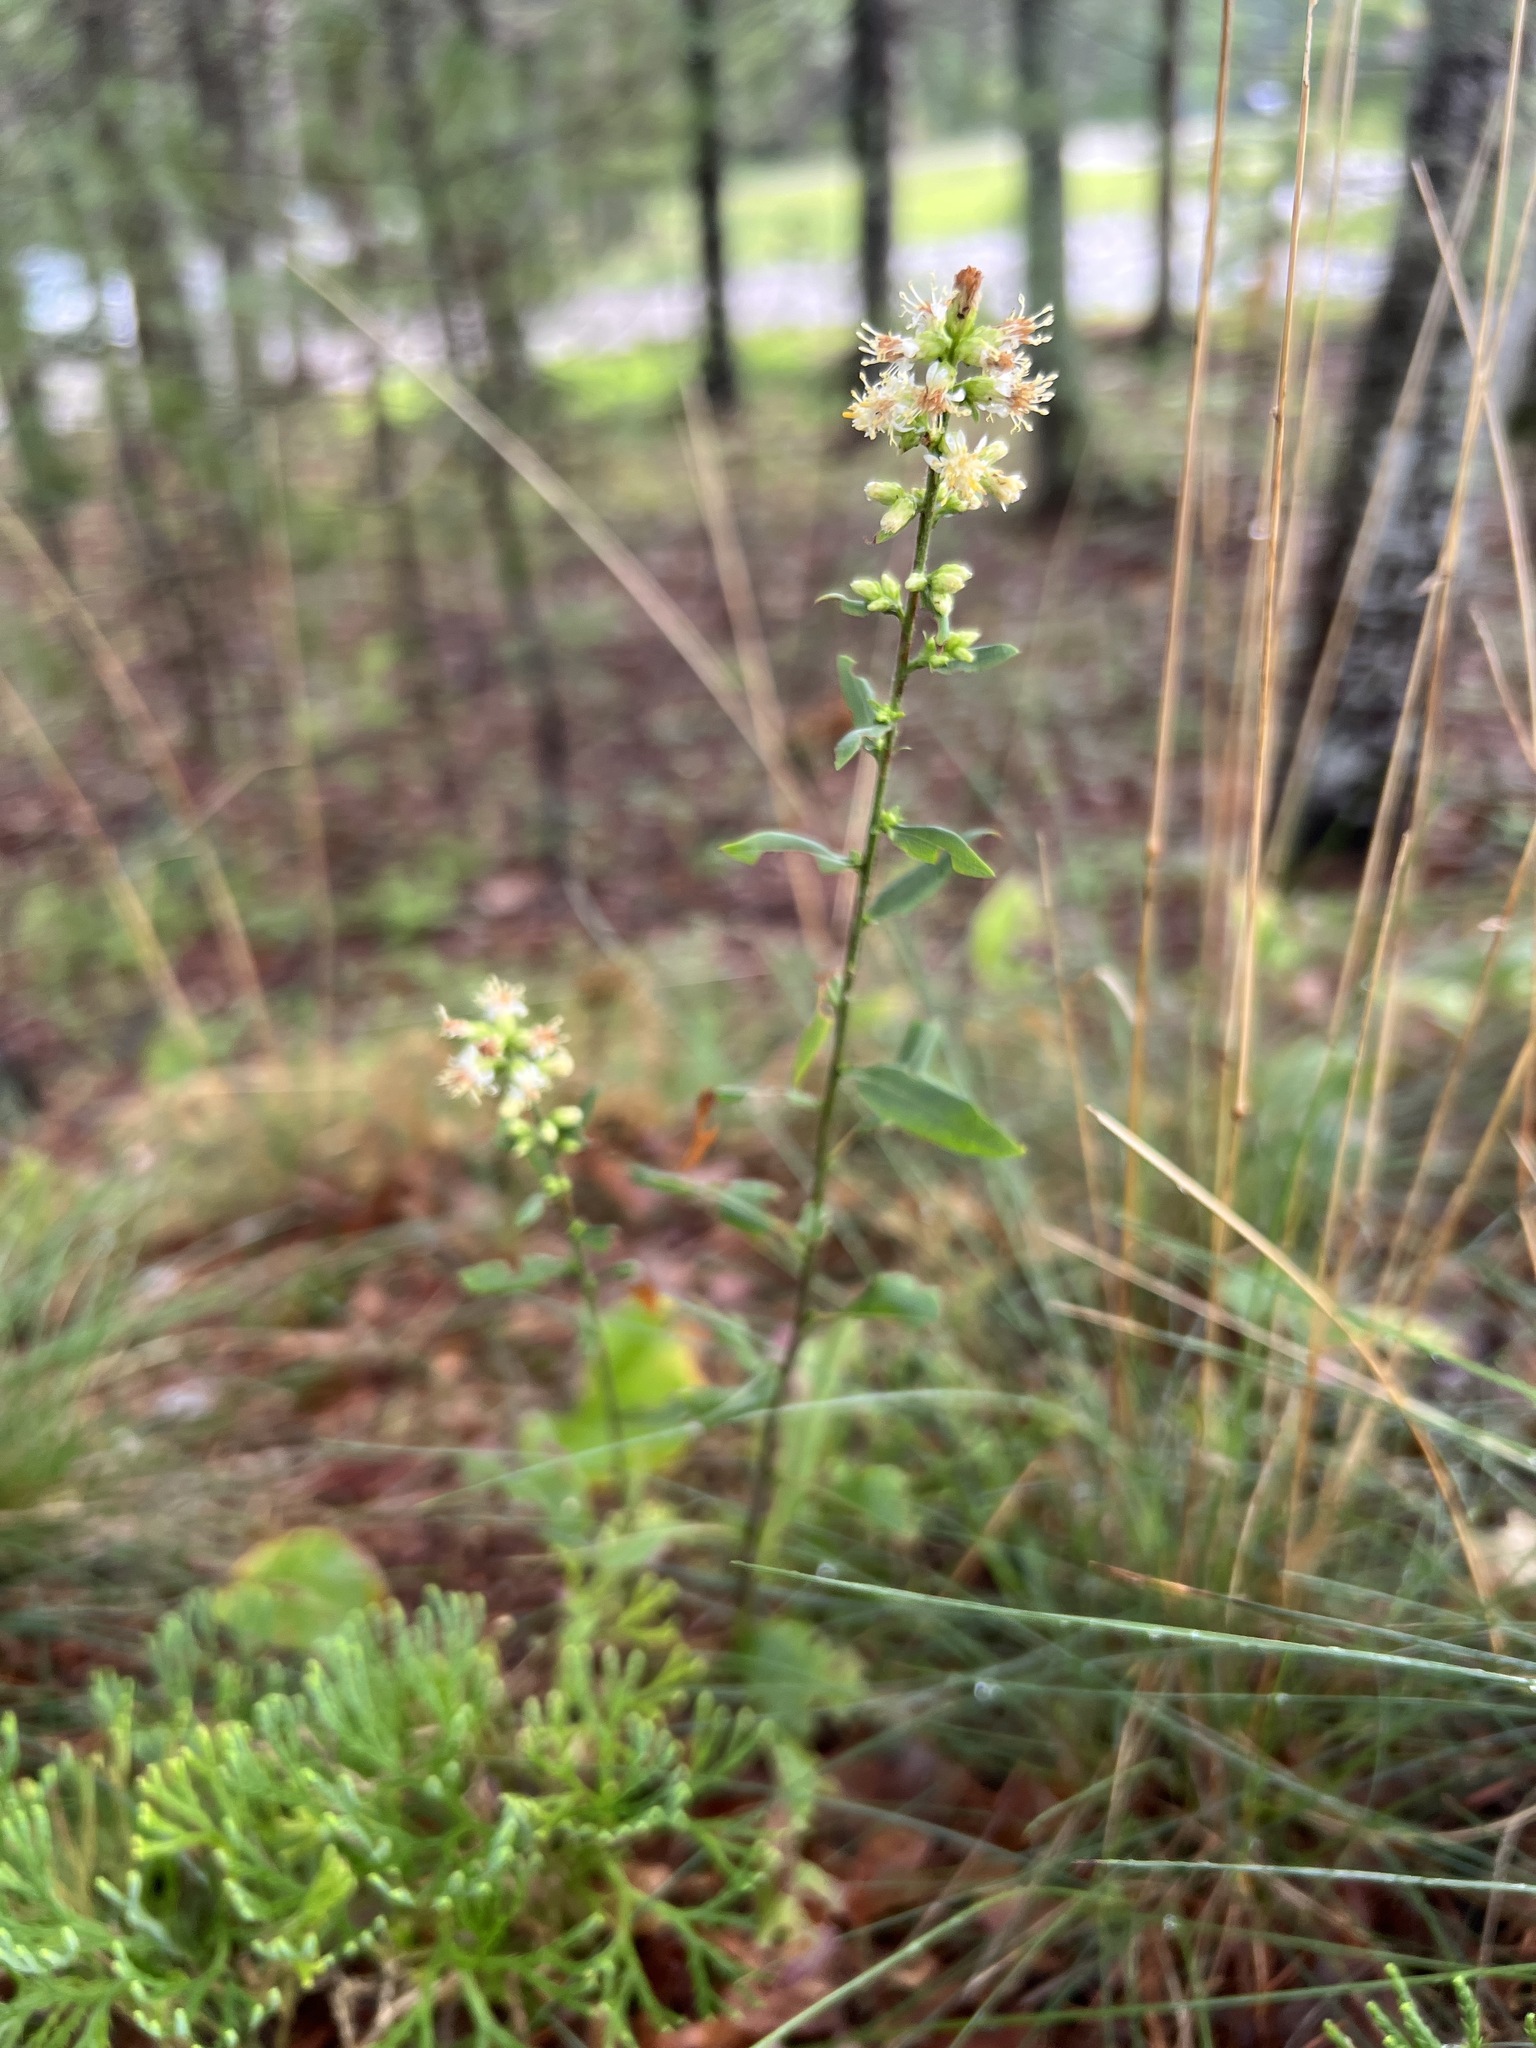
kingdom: Plantae
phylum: Tracheophyta
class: Magnoliopsida
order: Asterales
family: Asteraceae
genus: Solidago
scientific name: Solidago bicolor
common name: Silverrod
